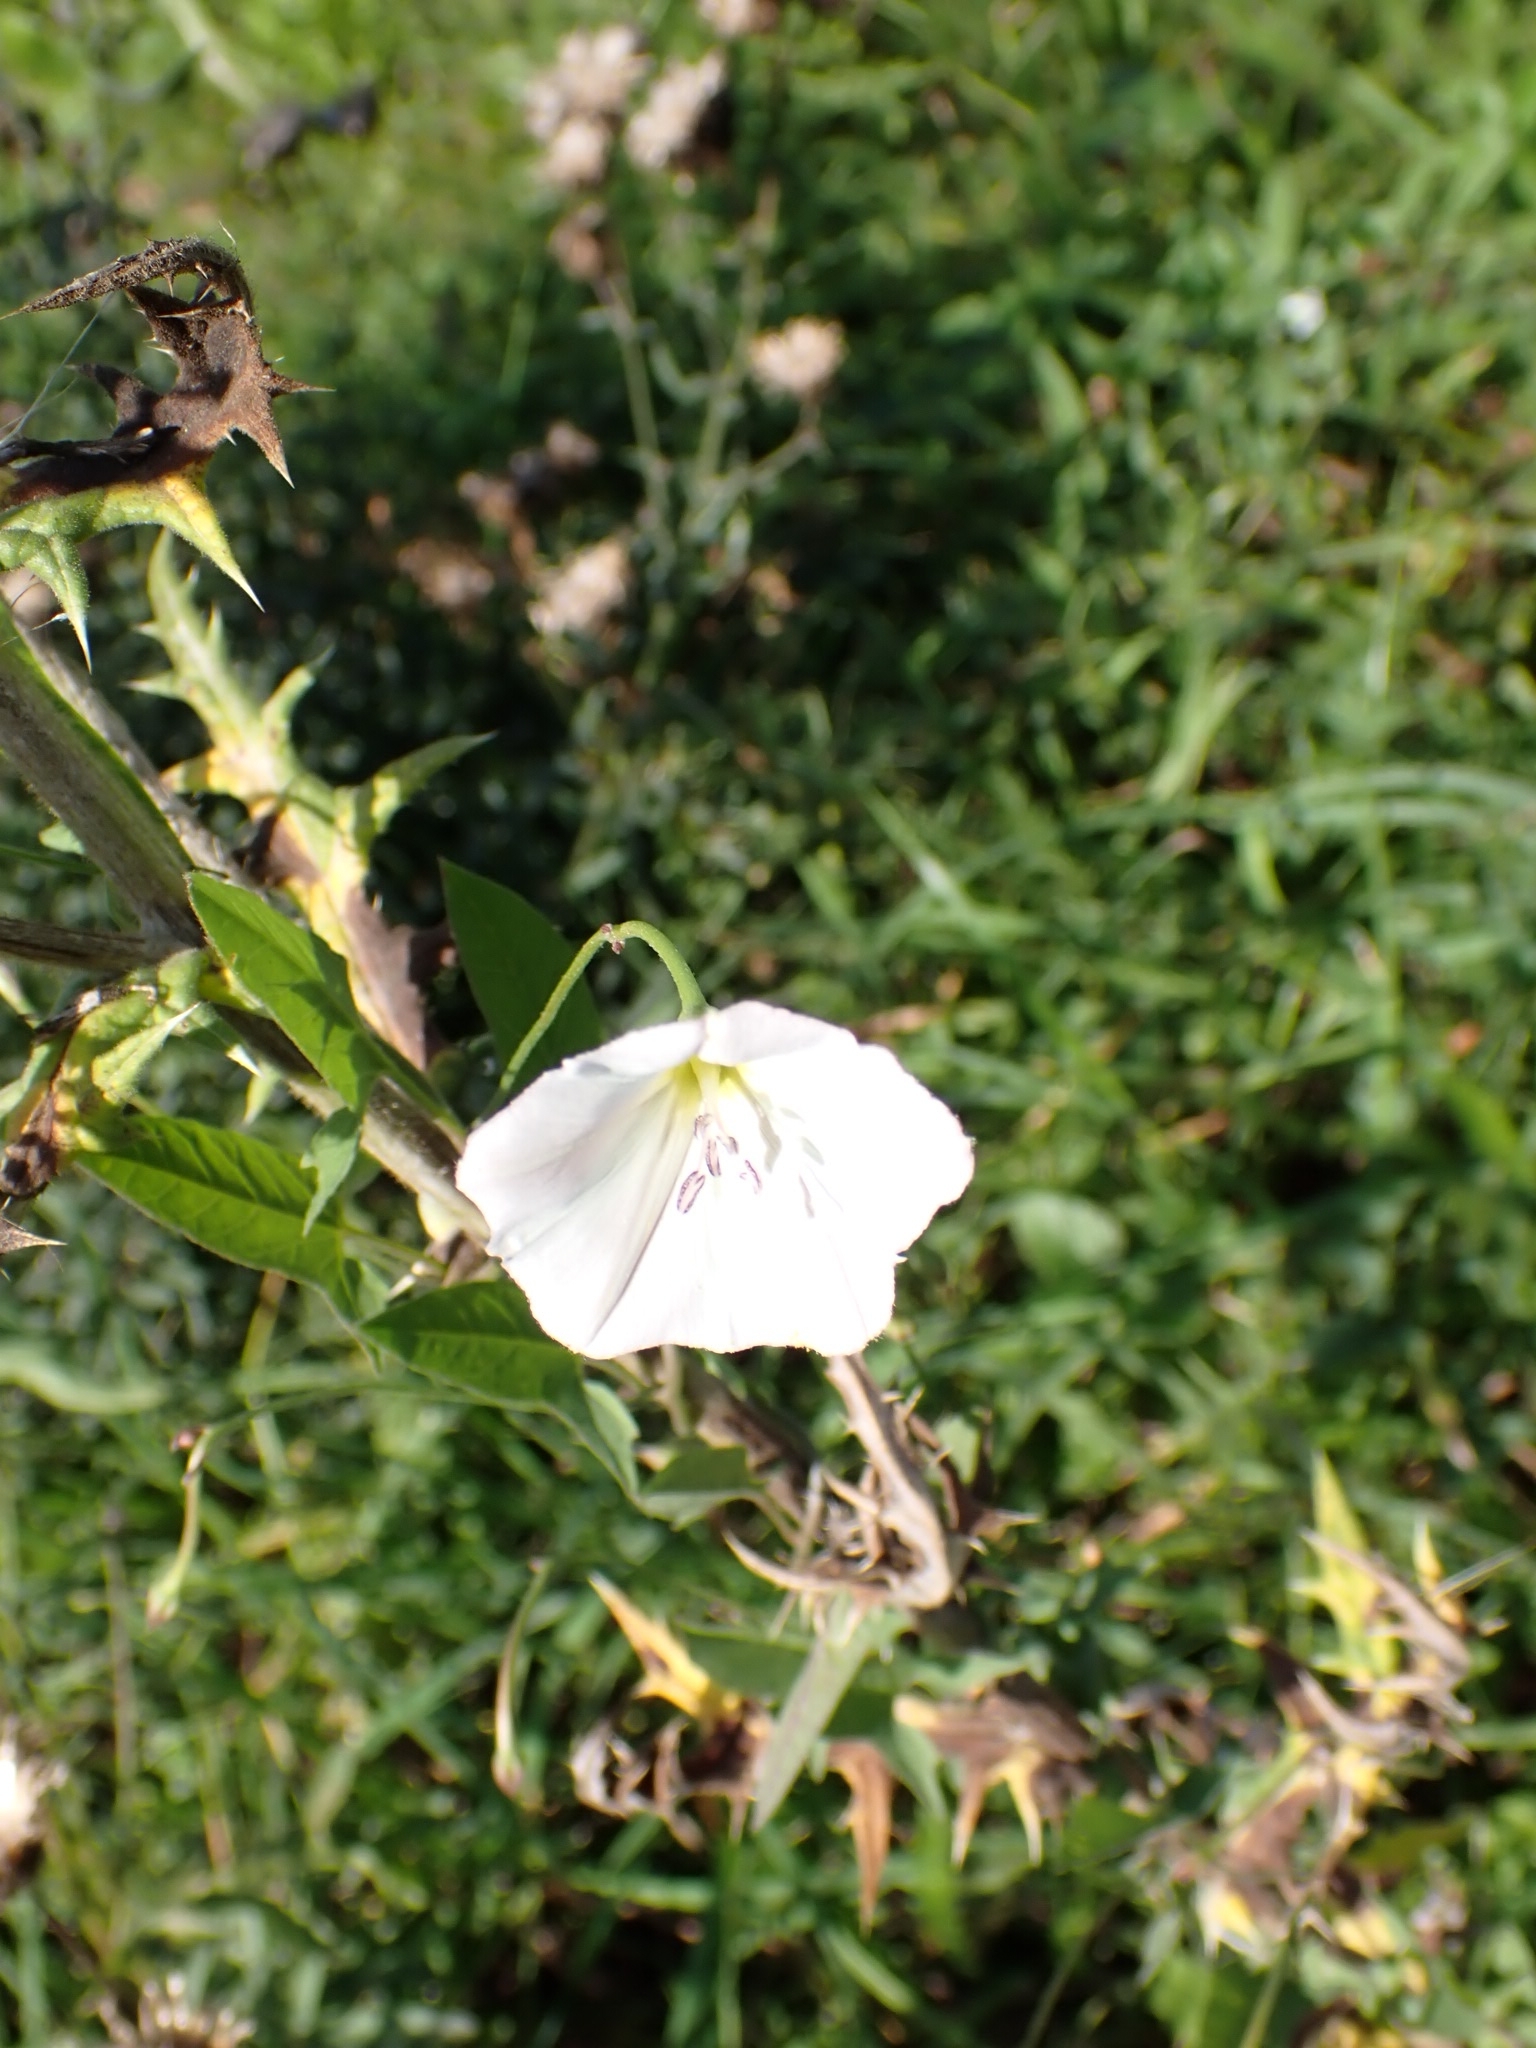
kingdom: Plantae
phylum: Tracheophyta
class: Magnoliopsida
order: Solanales
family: Convolvulaceae
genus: Convolvulus
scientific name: Convolvulus arvensis
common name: Field bindweed
